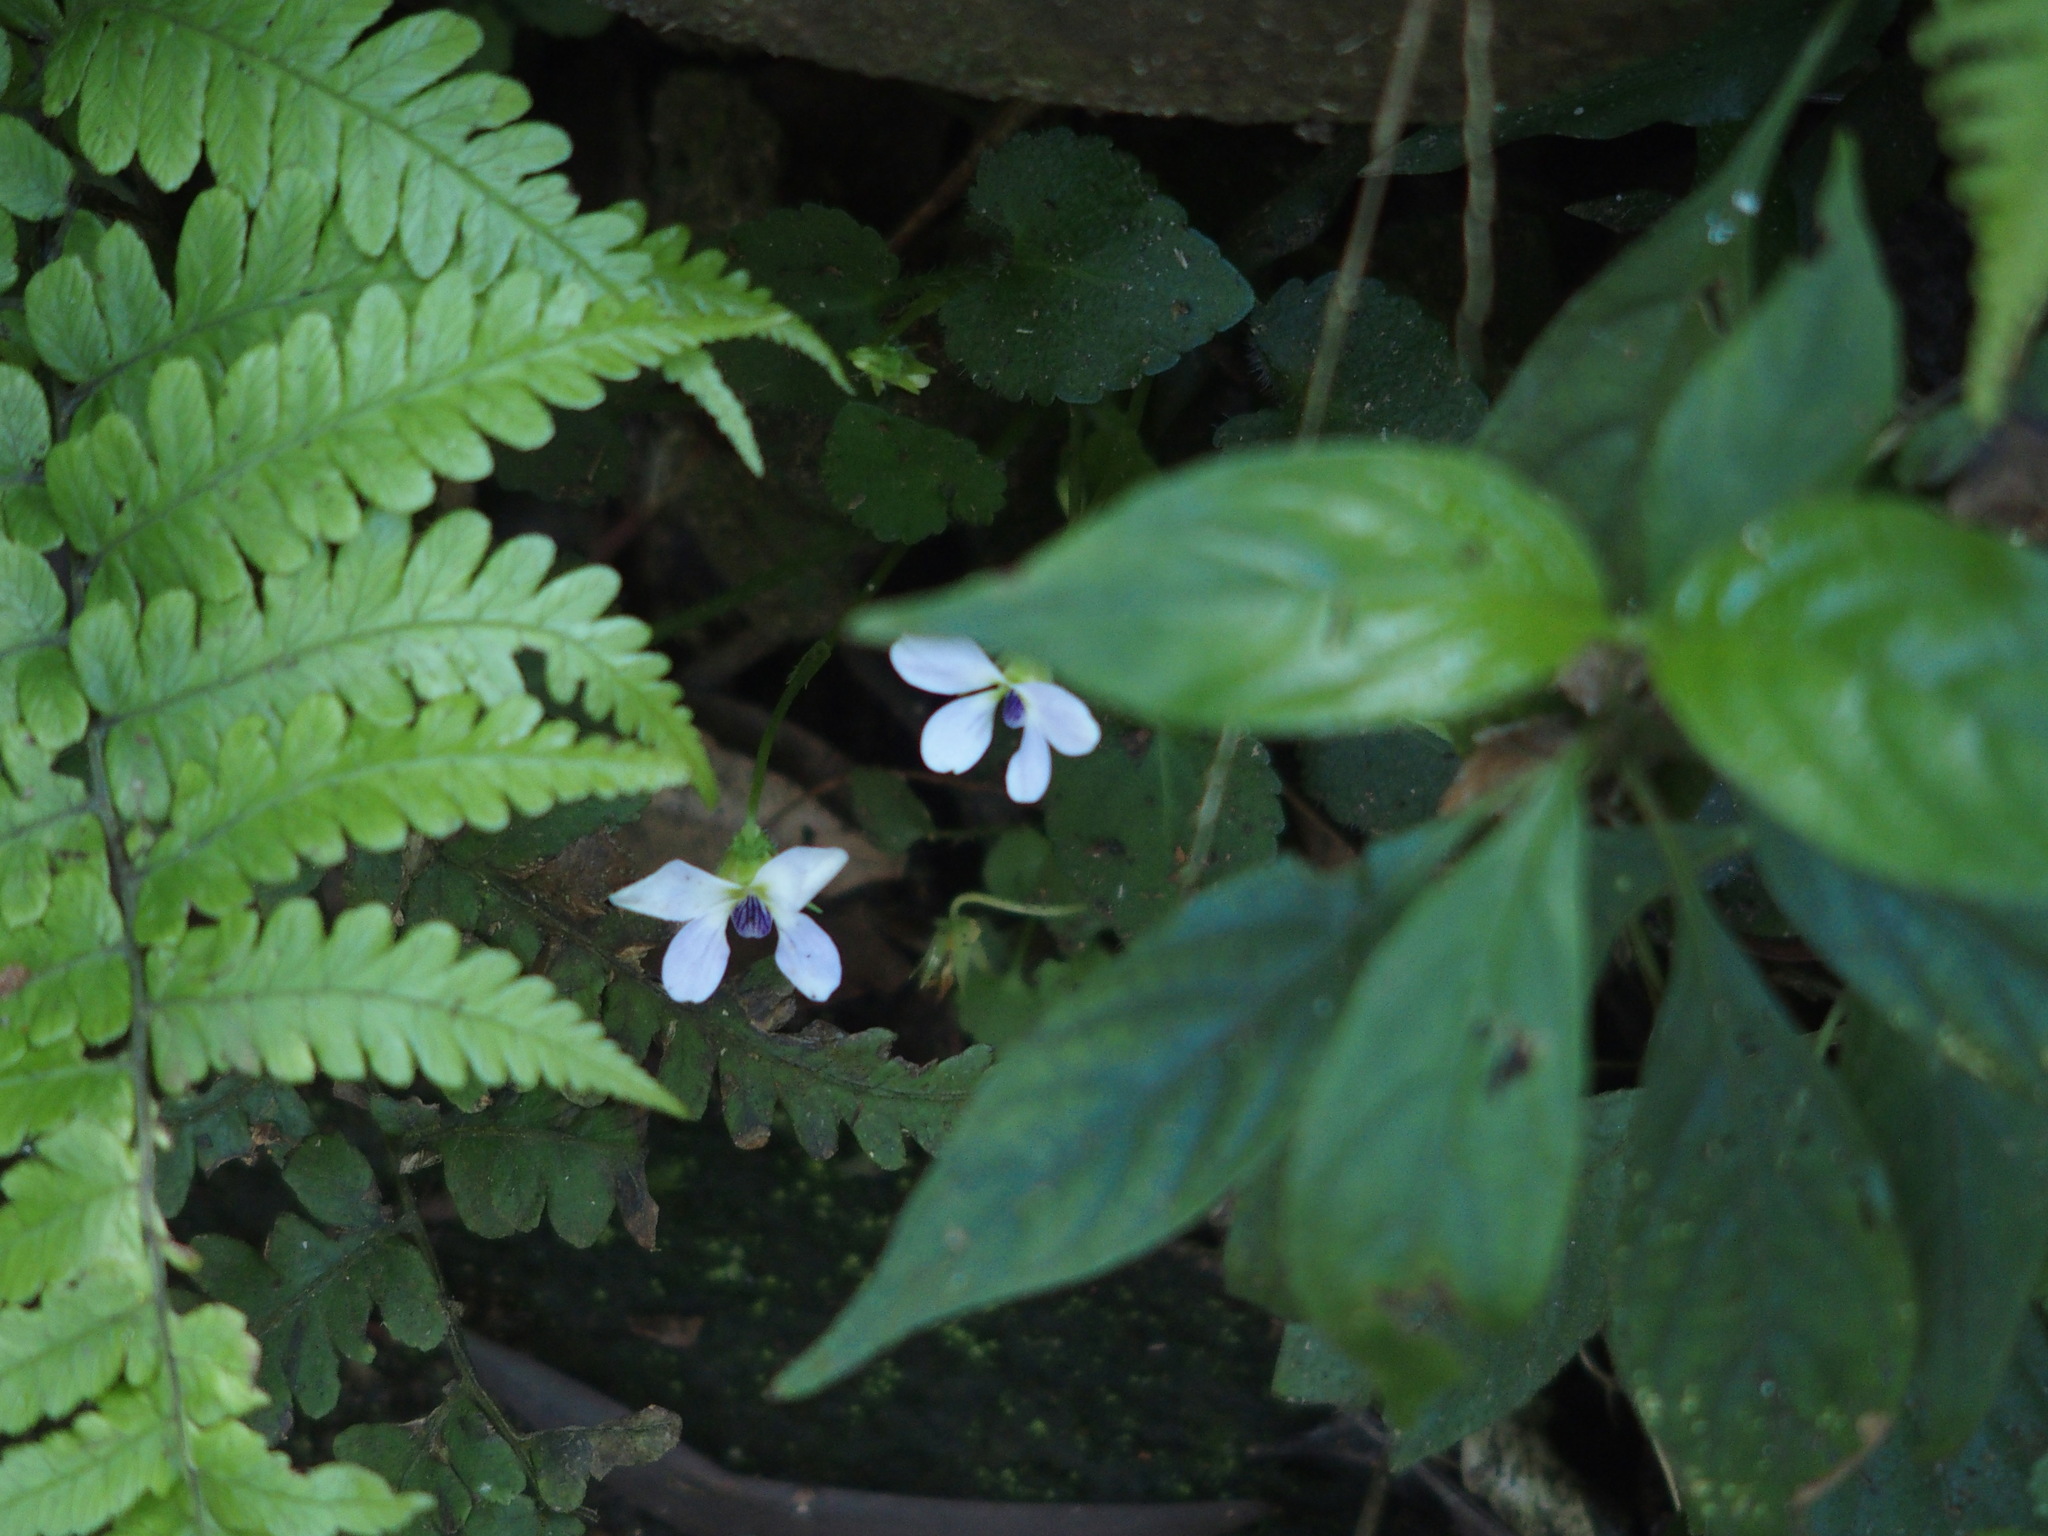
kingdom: Plantae
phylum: Tracheophyta
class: Magnoliopsida
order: Malpighiales
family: Violaceae
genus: Viola
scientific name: Viola nagasawae
